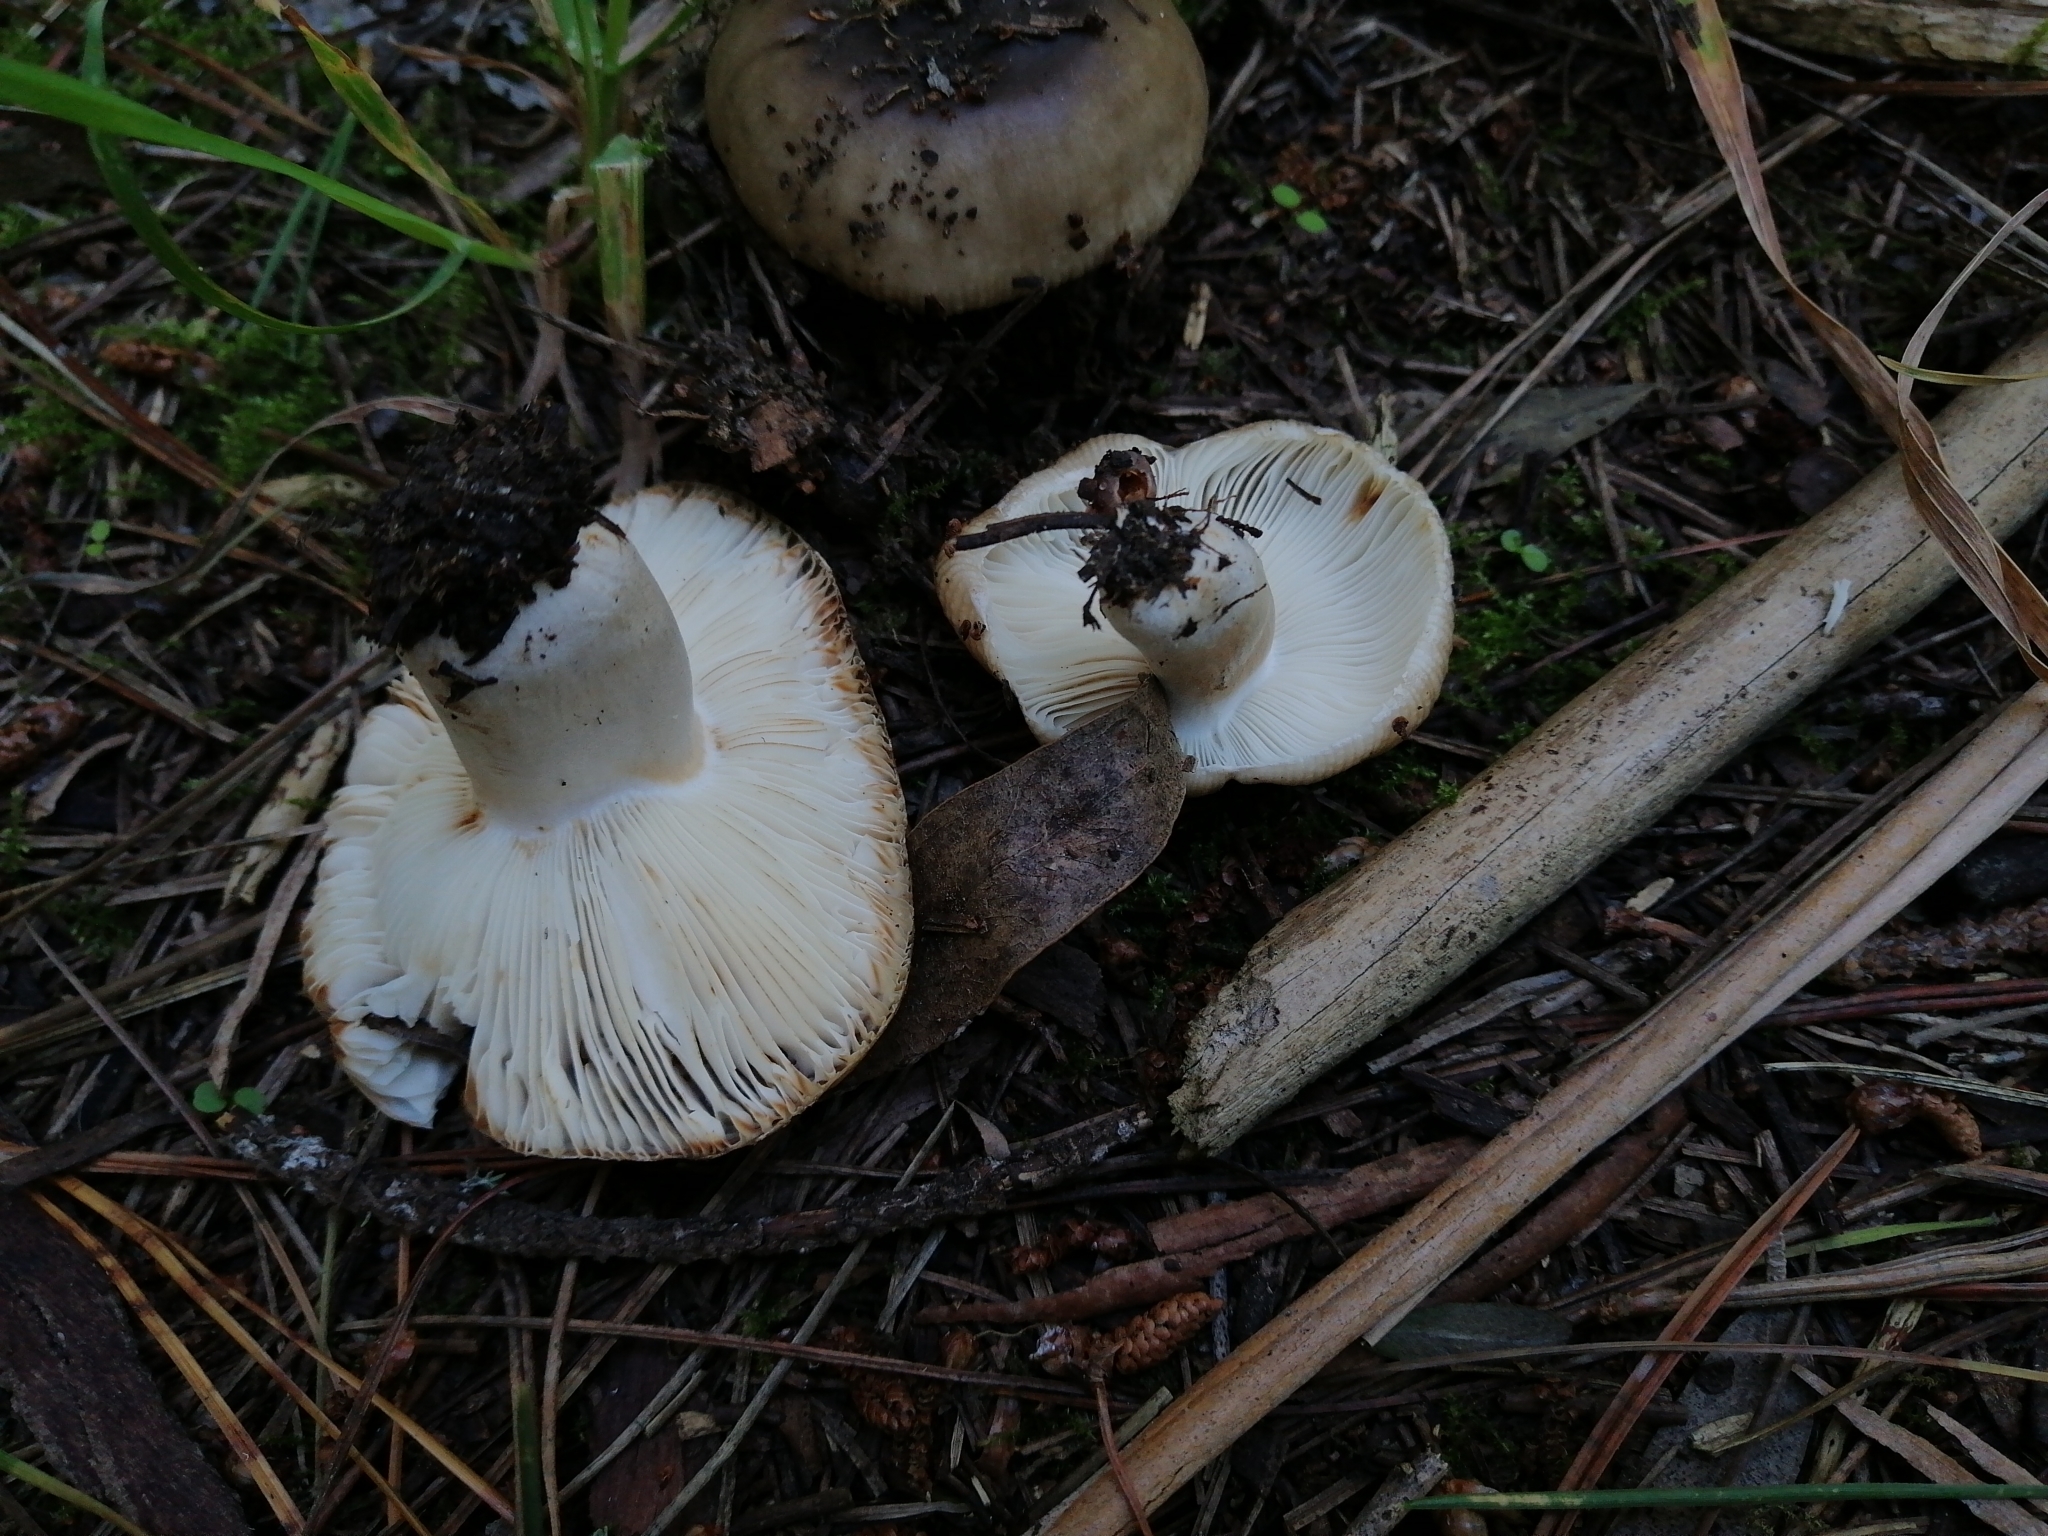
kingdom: Fungi
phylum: Basidiomycota
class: Agaricomycetes
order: Russulales
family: Russulaceae
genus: Russula
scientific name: Russula amoenolens
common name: Camembert brittlegill
